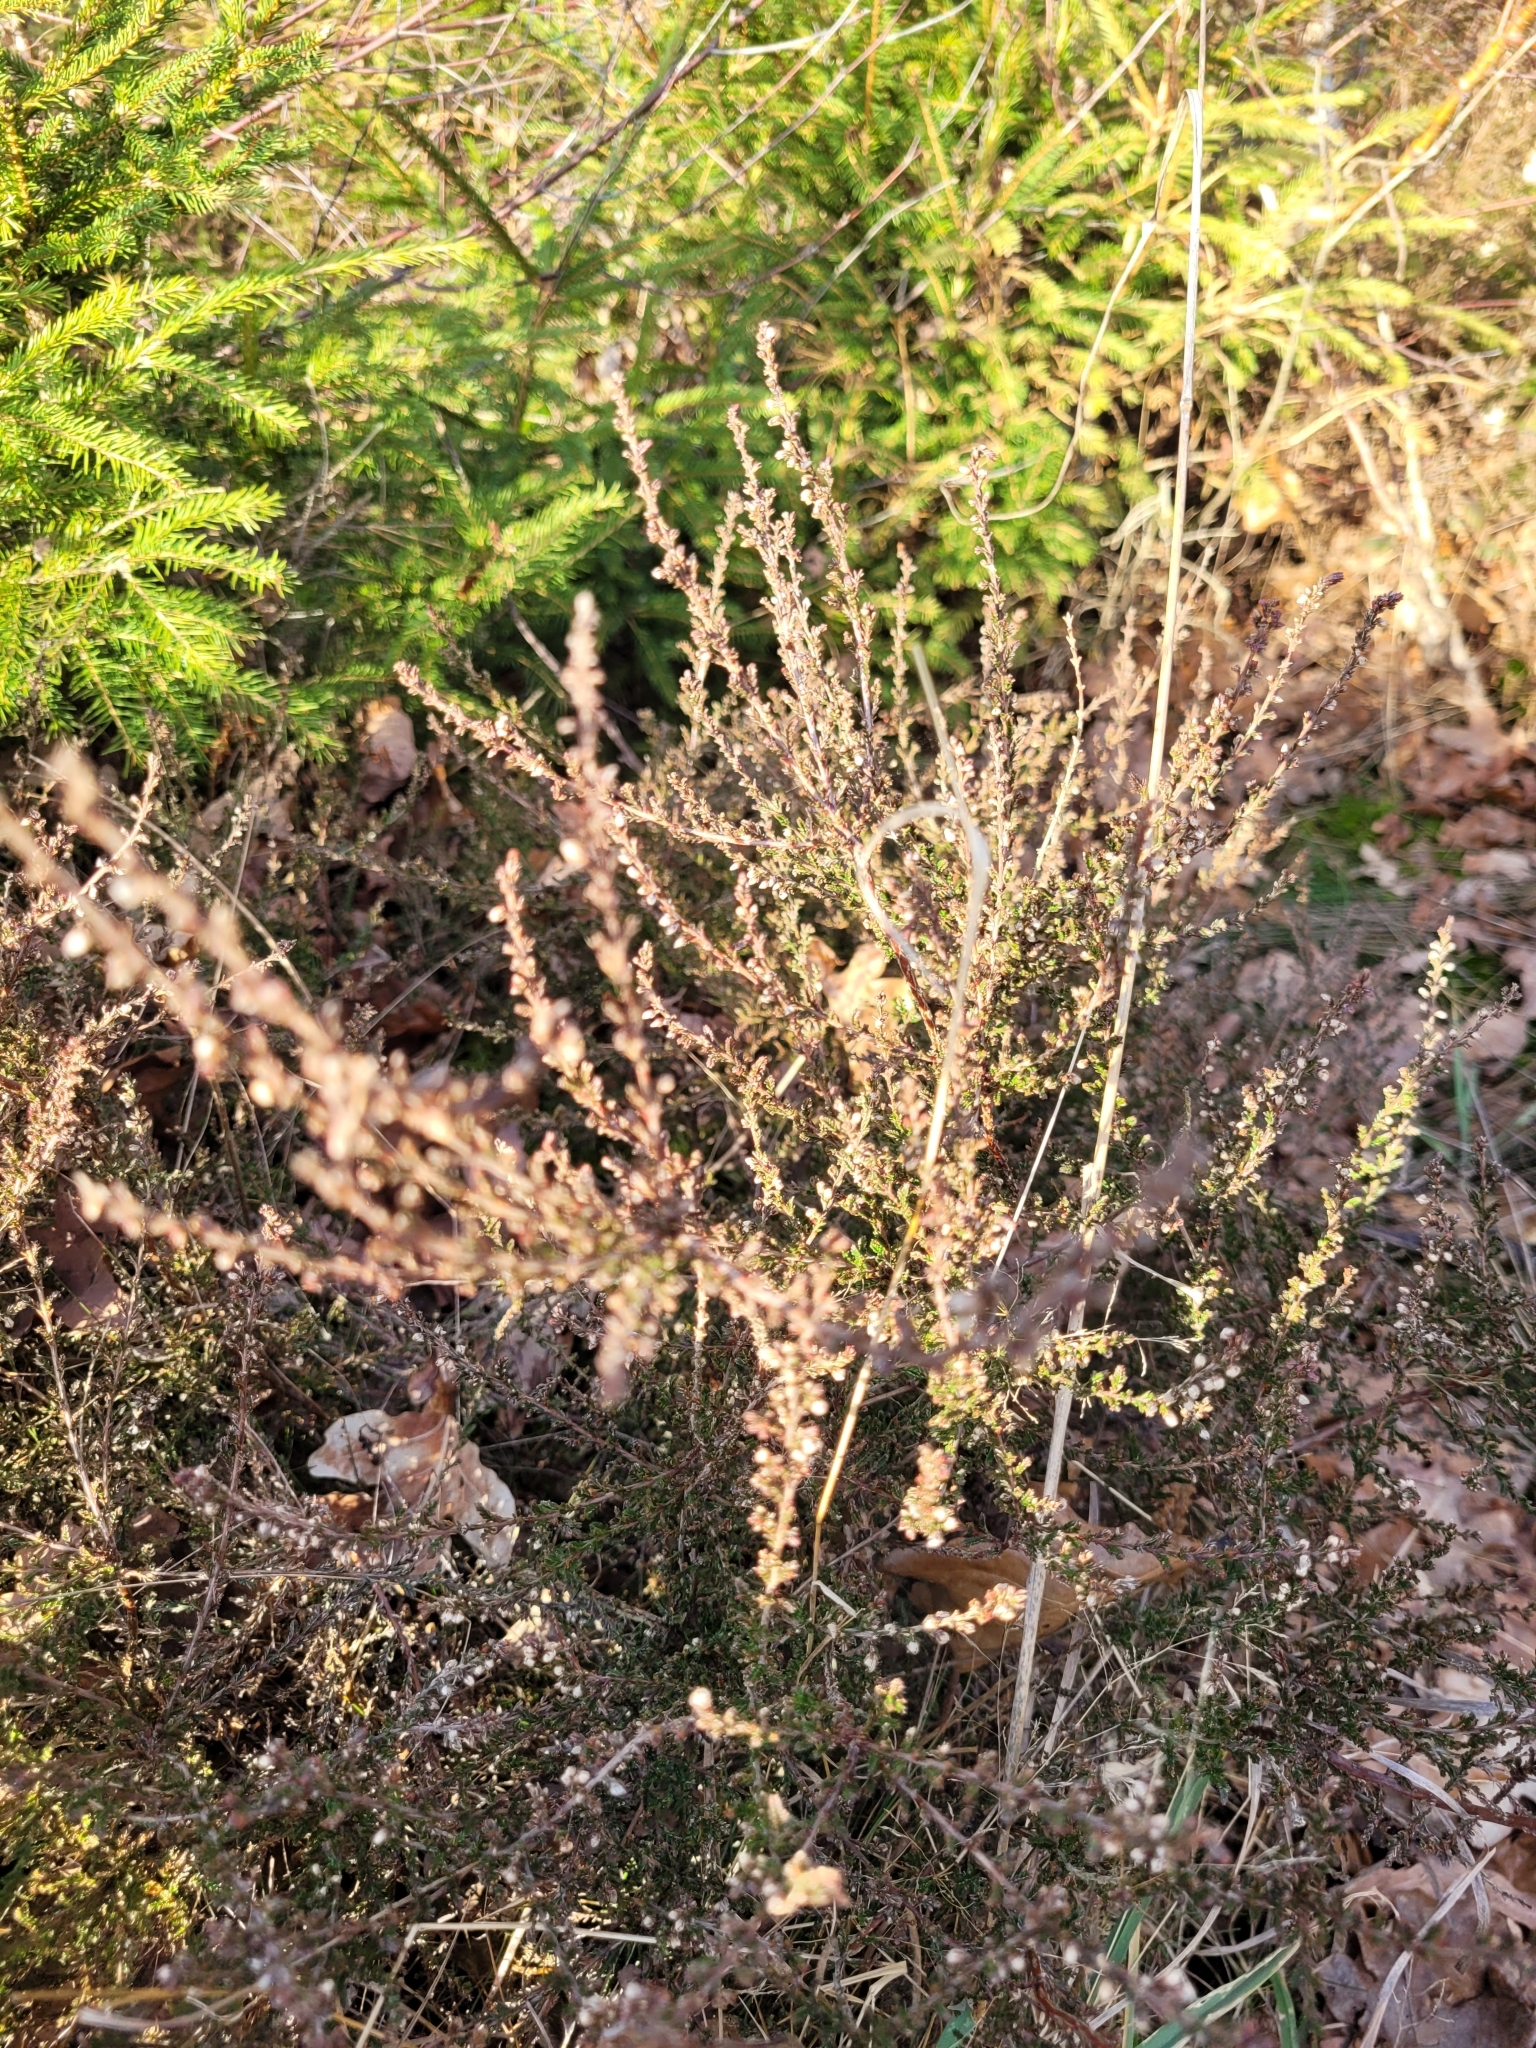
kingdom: Plantae
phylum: Tracheophyta
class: Magnoliopsida
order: Ericales
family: Ericaceae
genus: Calluna
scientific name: Calluna vulgaris
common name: Heather
